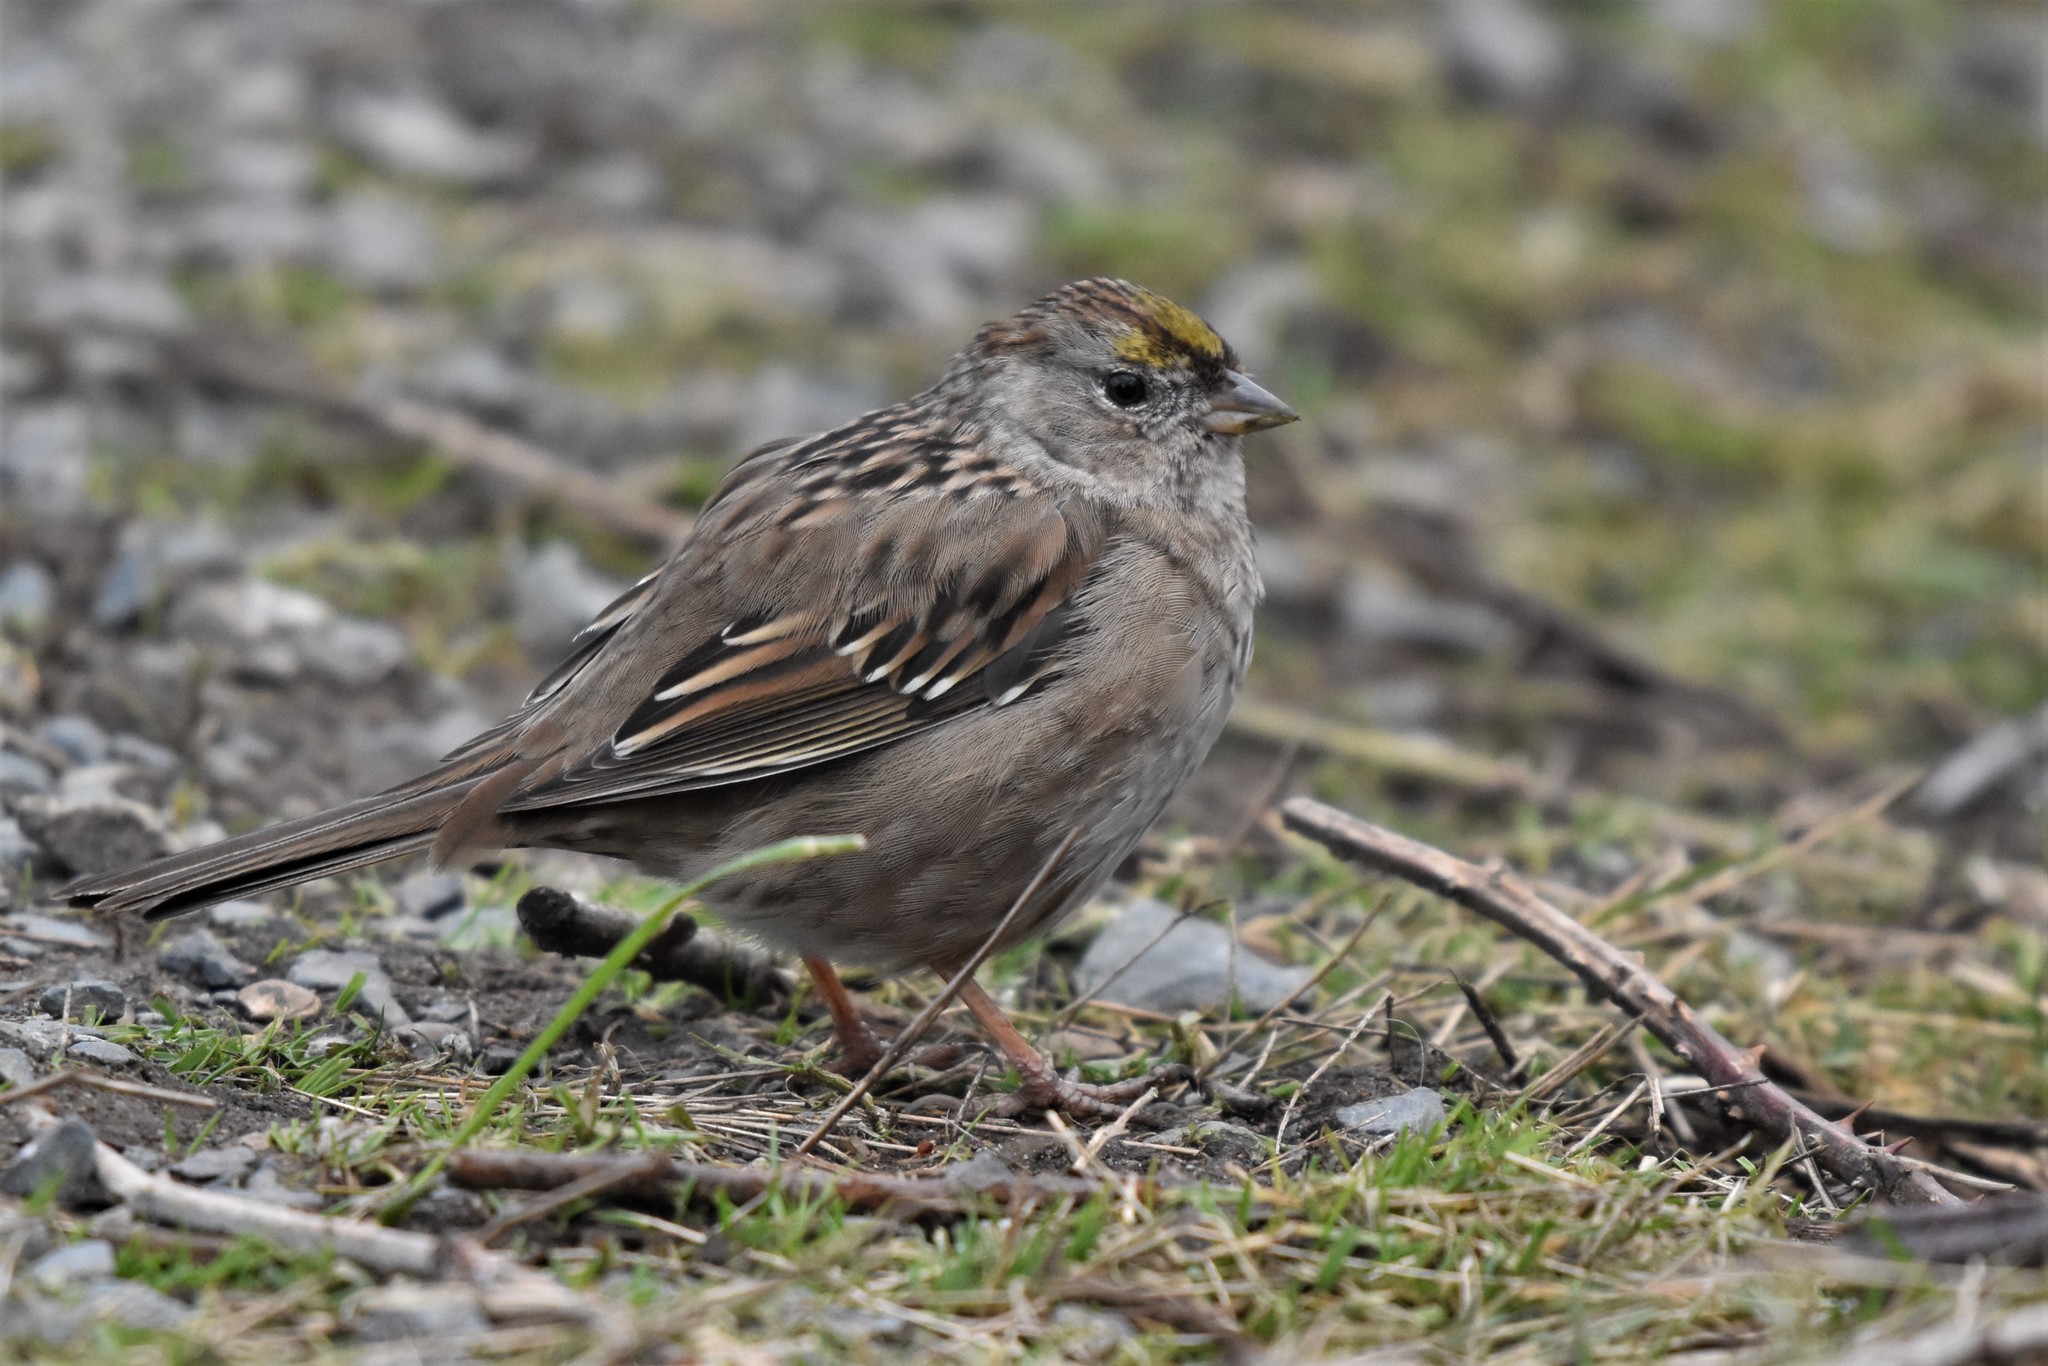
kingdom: Animalia
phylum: Chordata
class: Aves
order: Passeriformes
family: Passerellidae
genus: Zonotrichia
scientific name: Zonotrichia atricapilla
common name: Golden-crowned sparrow
